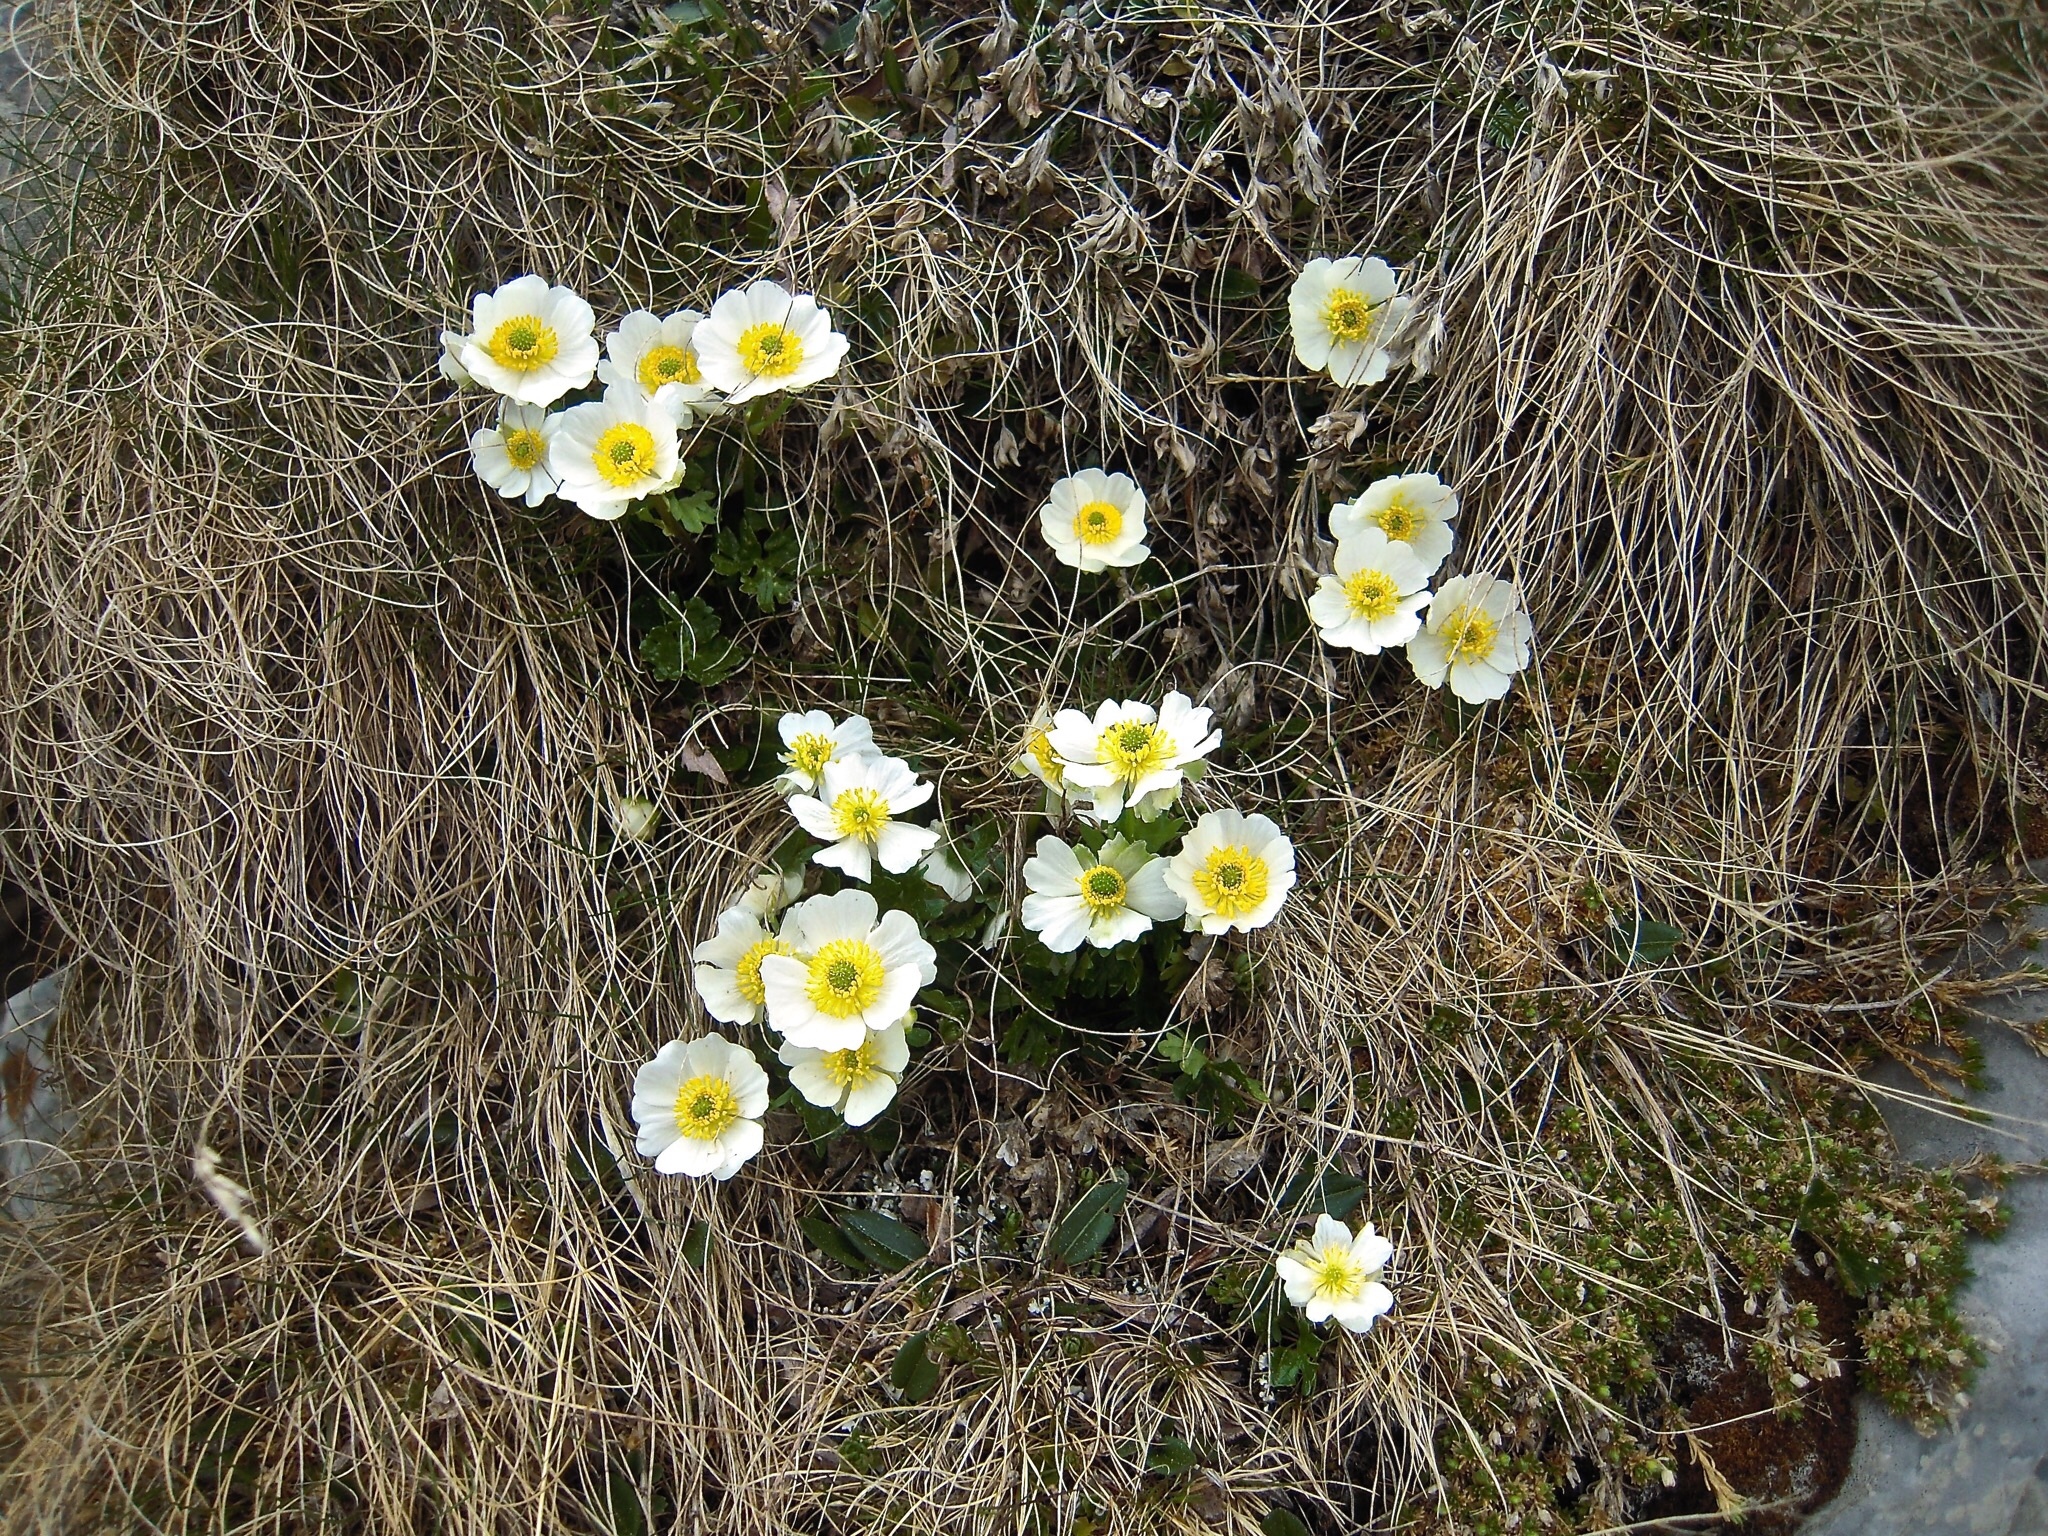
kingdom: Plantae
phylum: Tracheophyta
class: Magnoliopsida
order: Ranunculales
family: Ranunculaceae
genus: Ranunculus
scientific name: Ranunculus alpestris
